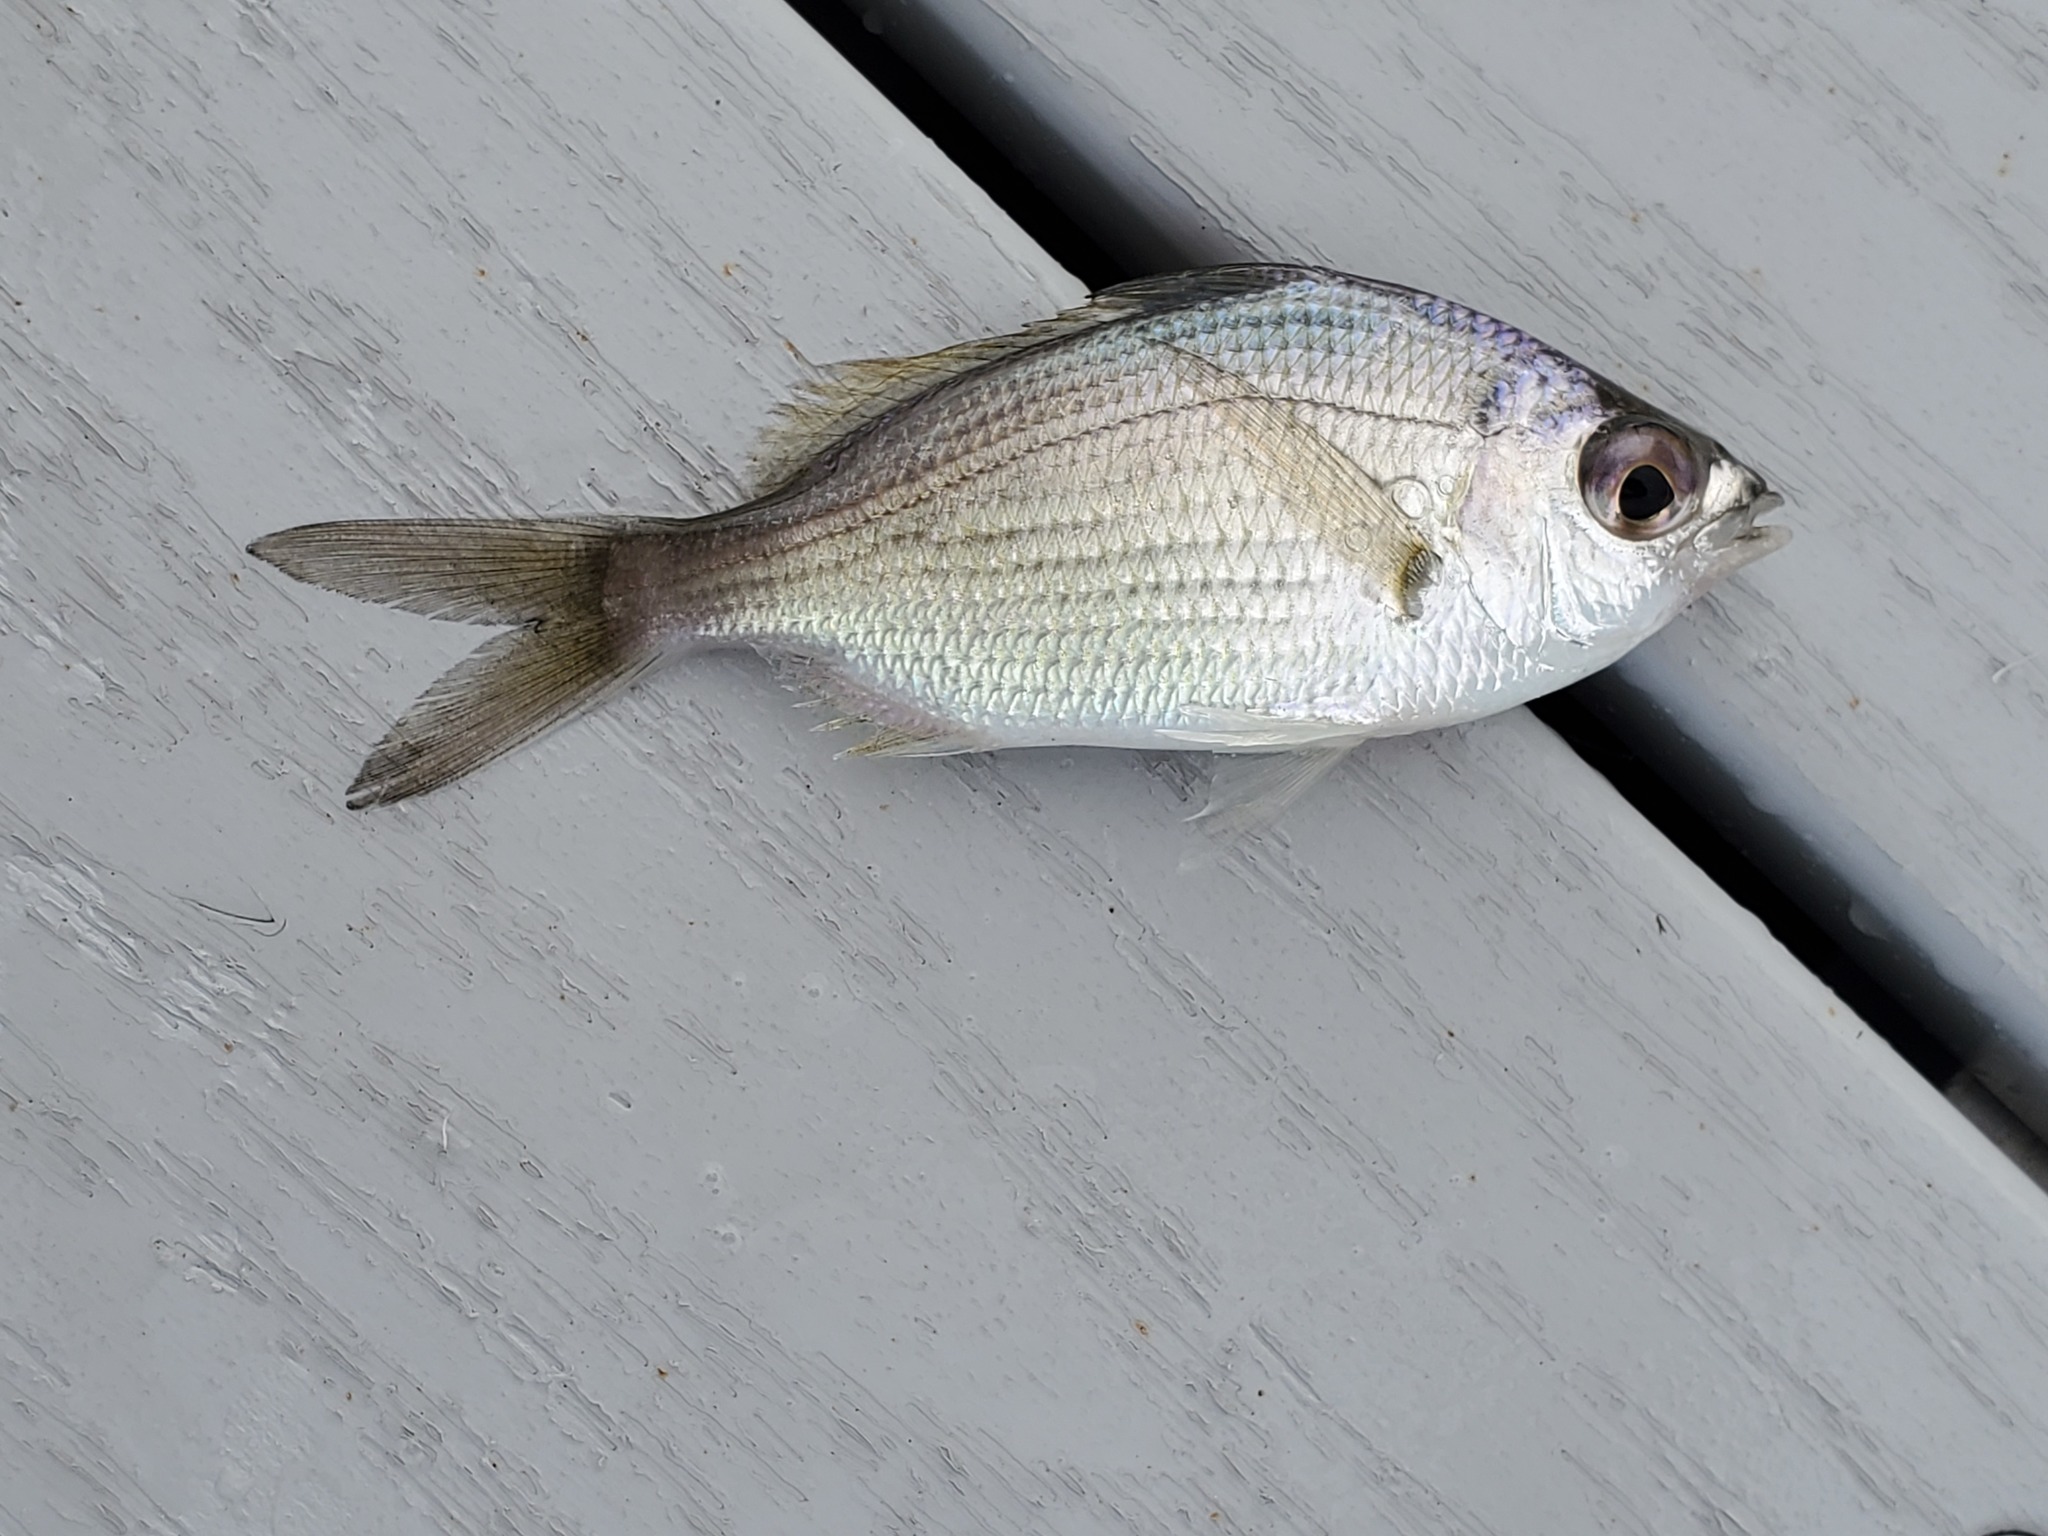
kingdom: Animalia
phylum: Chordata
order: Perciformes
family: Gerreidae
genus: Eucinostomus
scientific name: Eucinostomus gula
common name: Silver jenny
